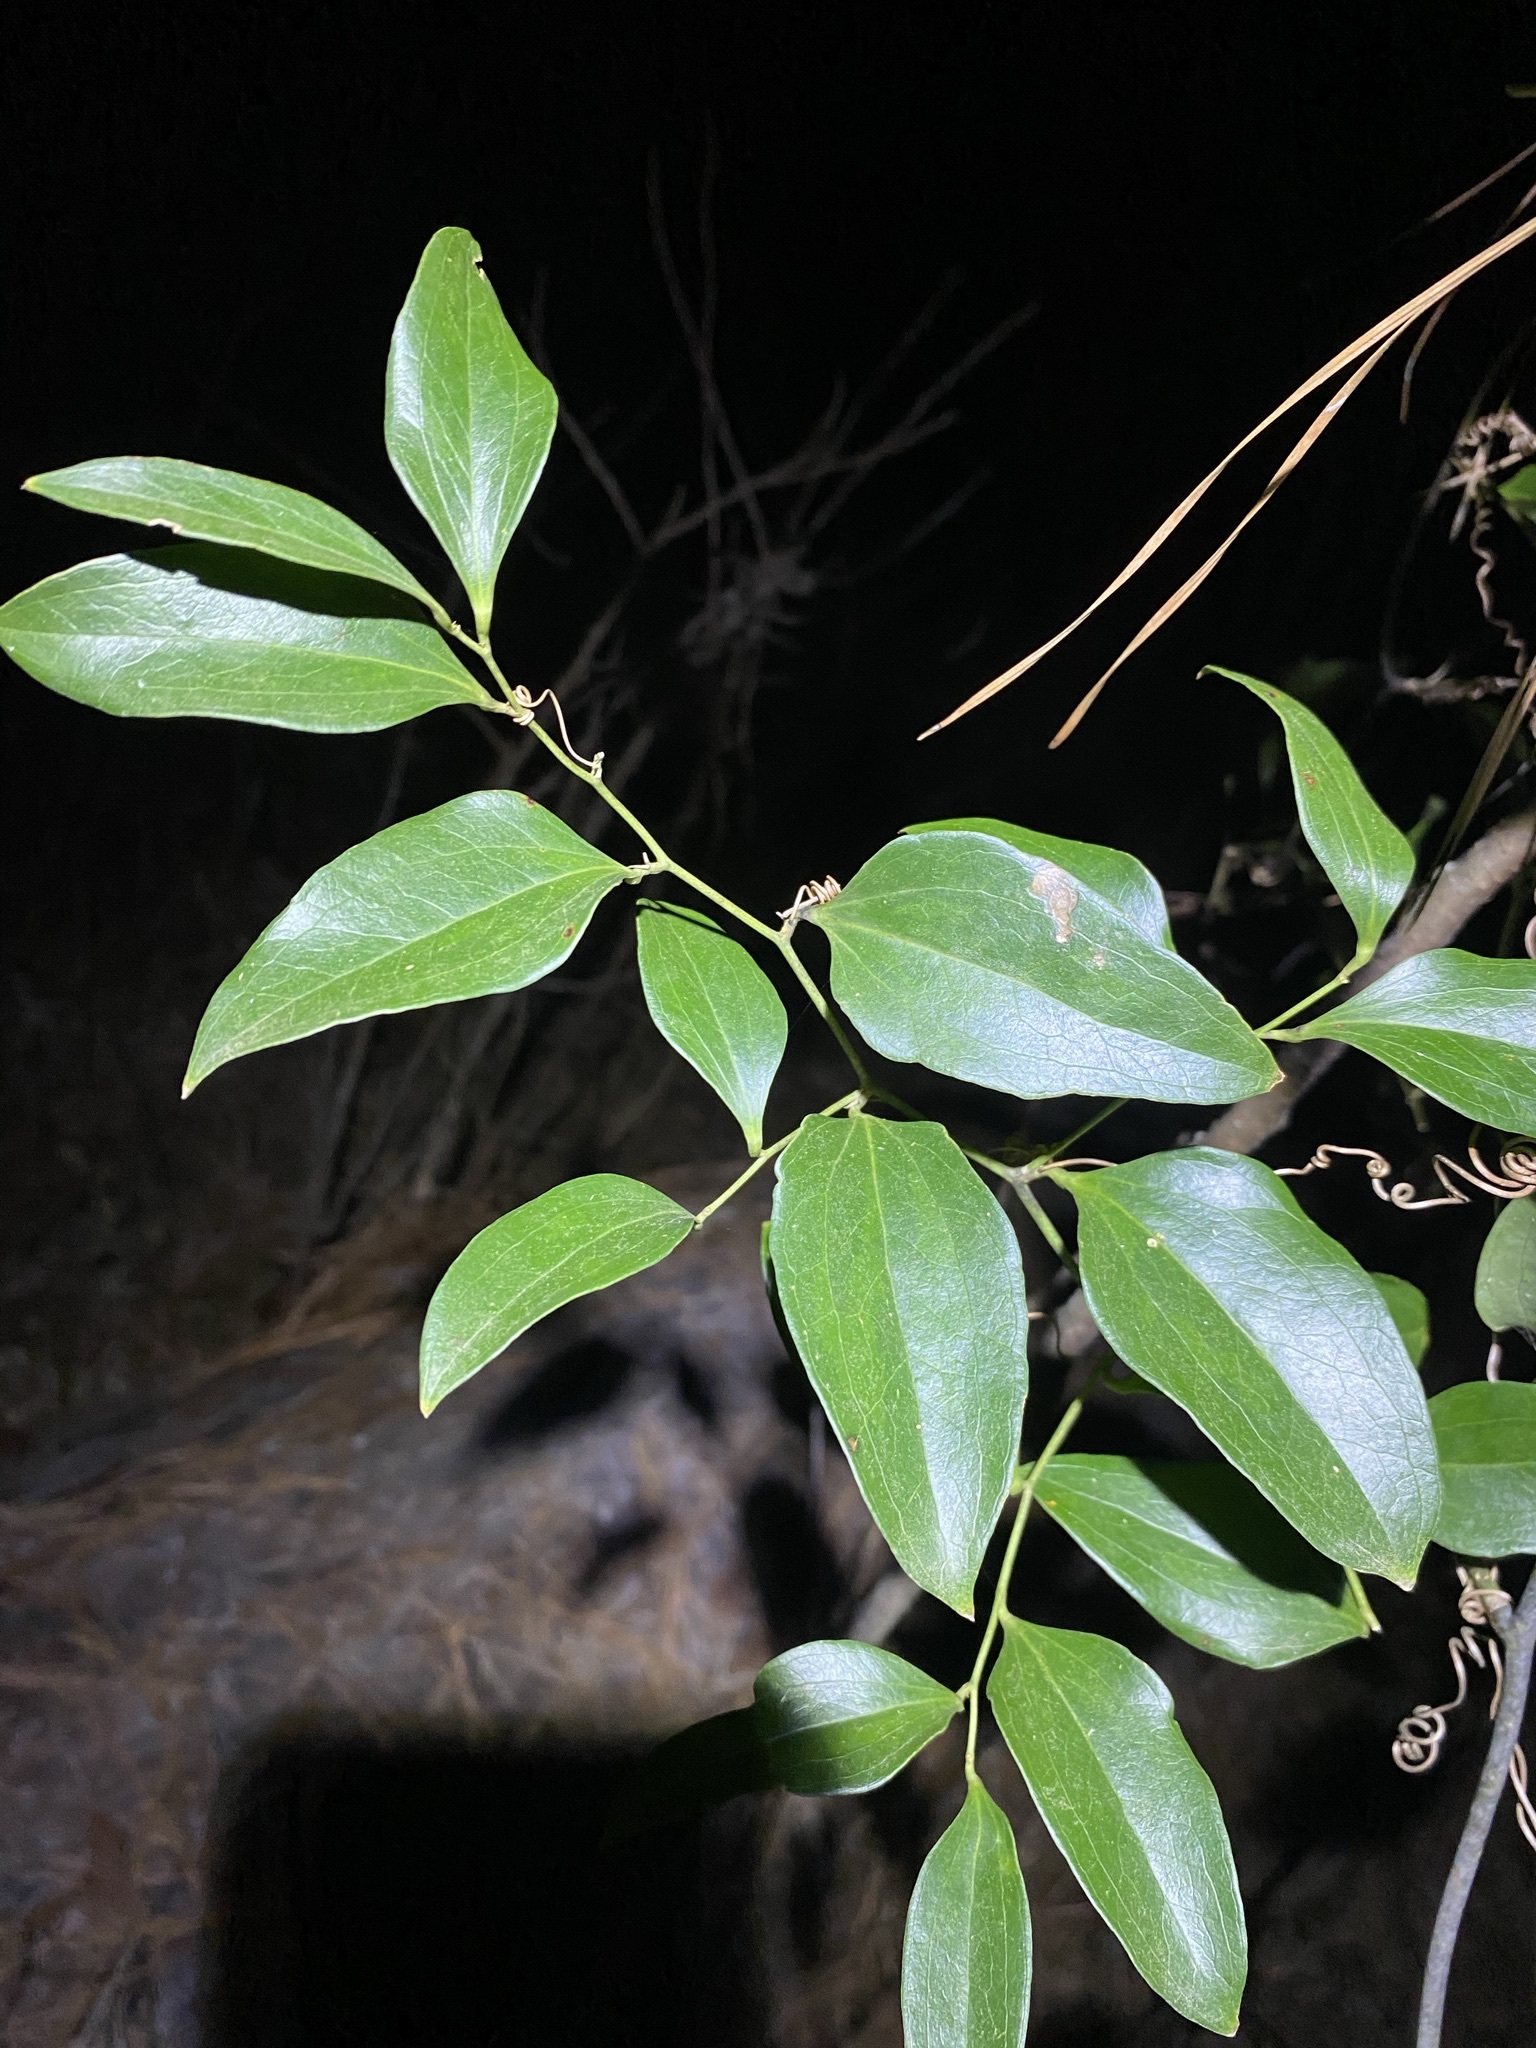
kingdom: Plantae
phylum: Tracheophyta
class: Liliopsida
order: Liliales
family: Smilacaceae
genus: Smilax
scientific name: Smilax maritima
